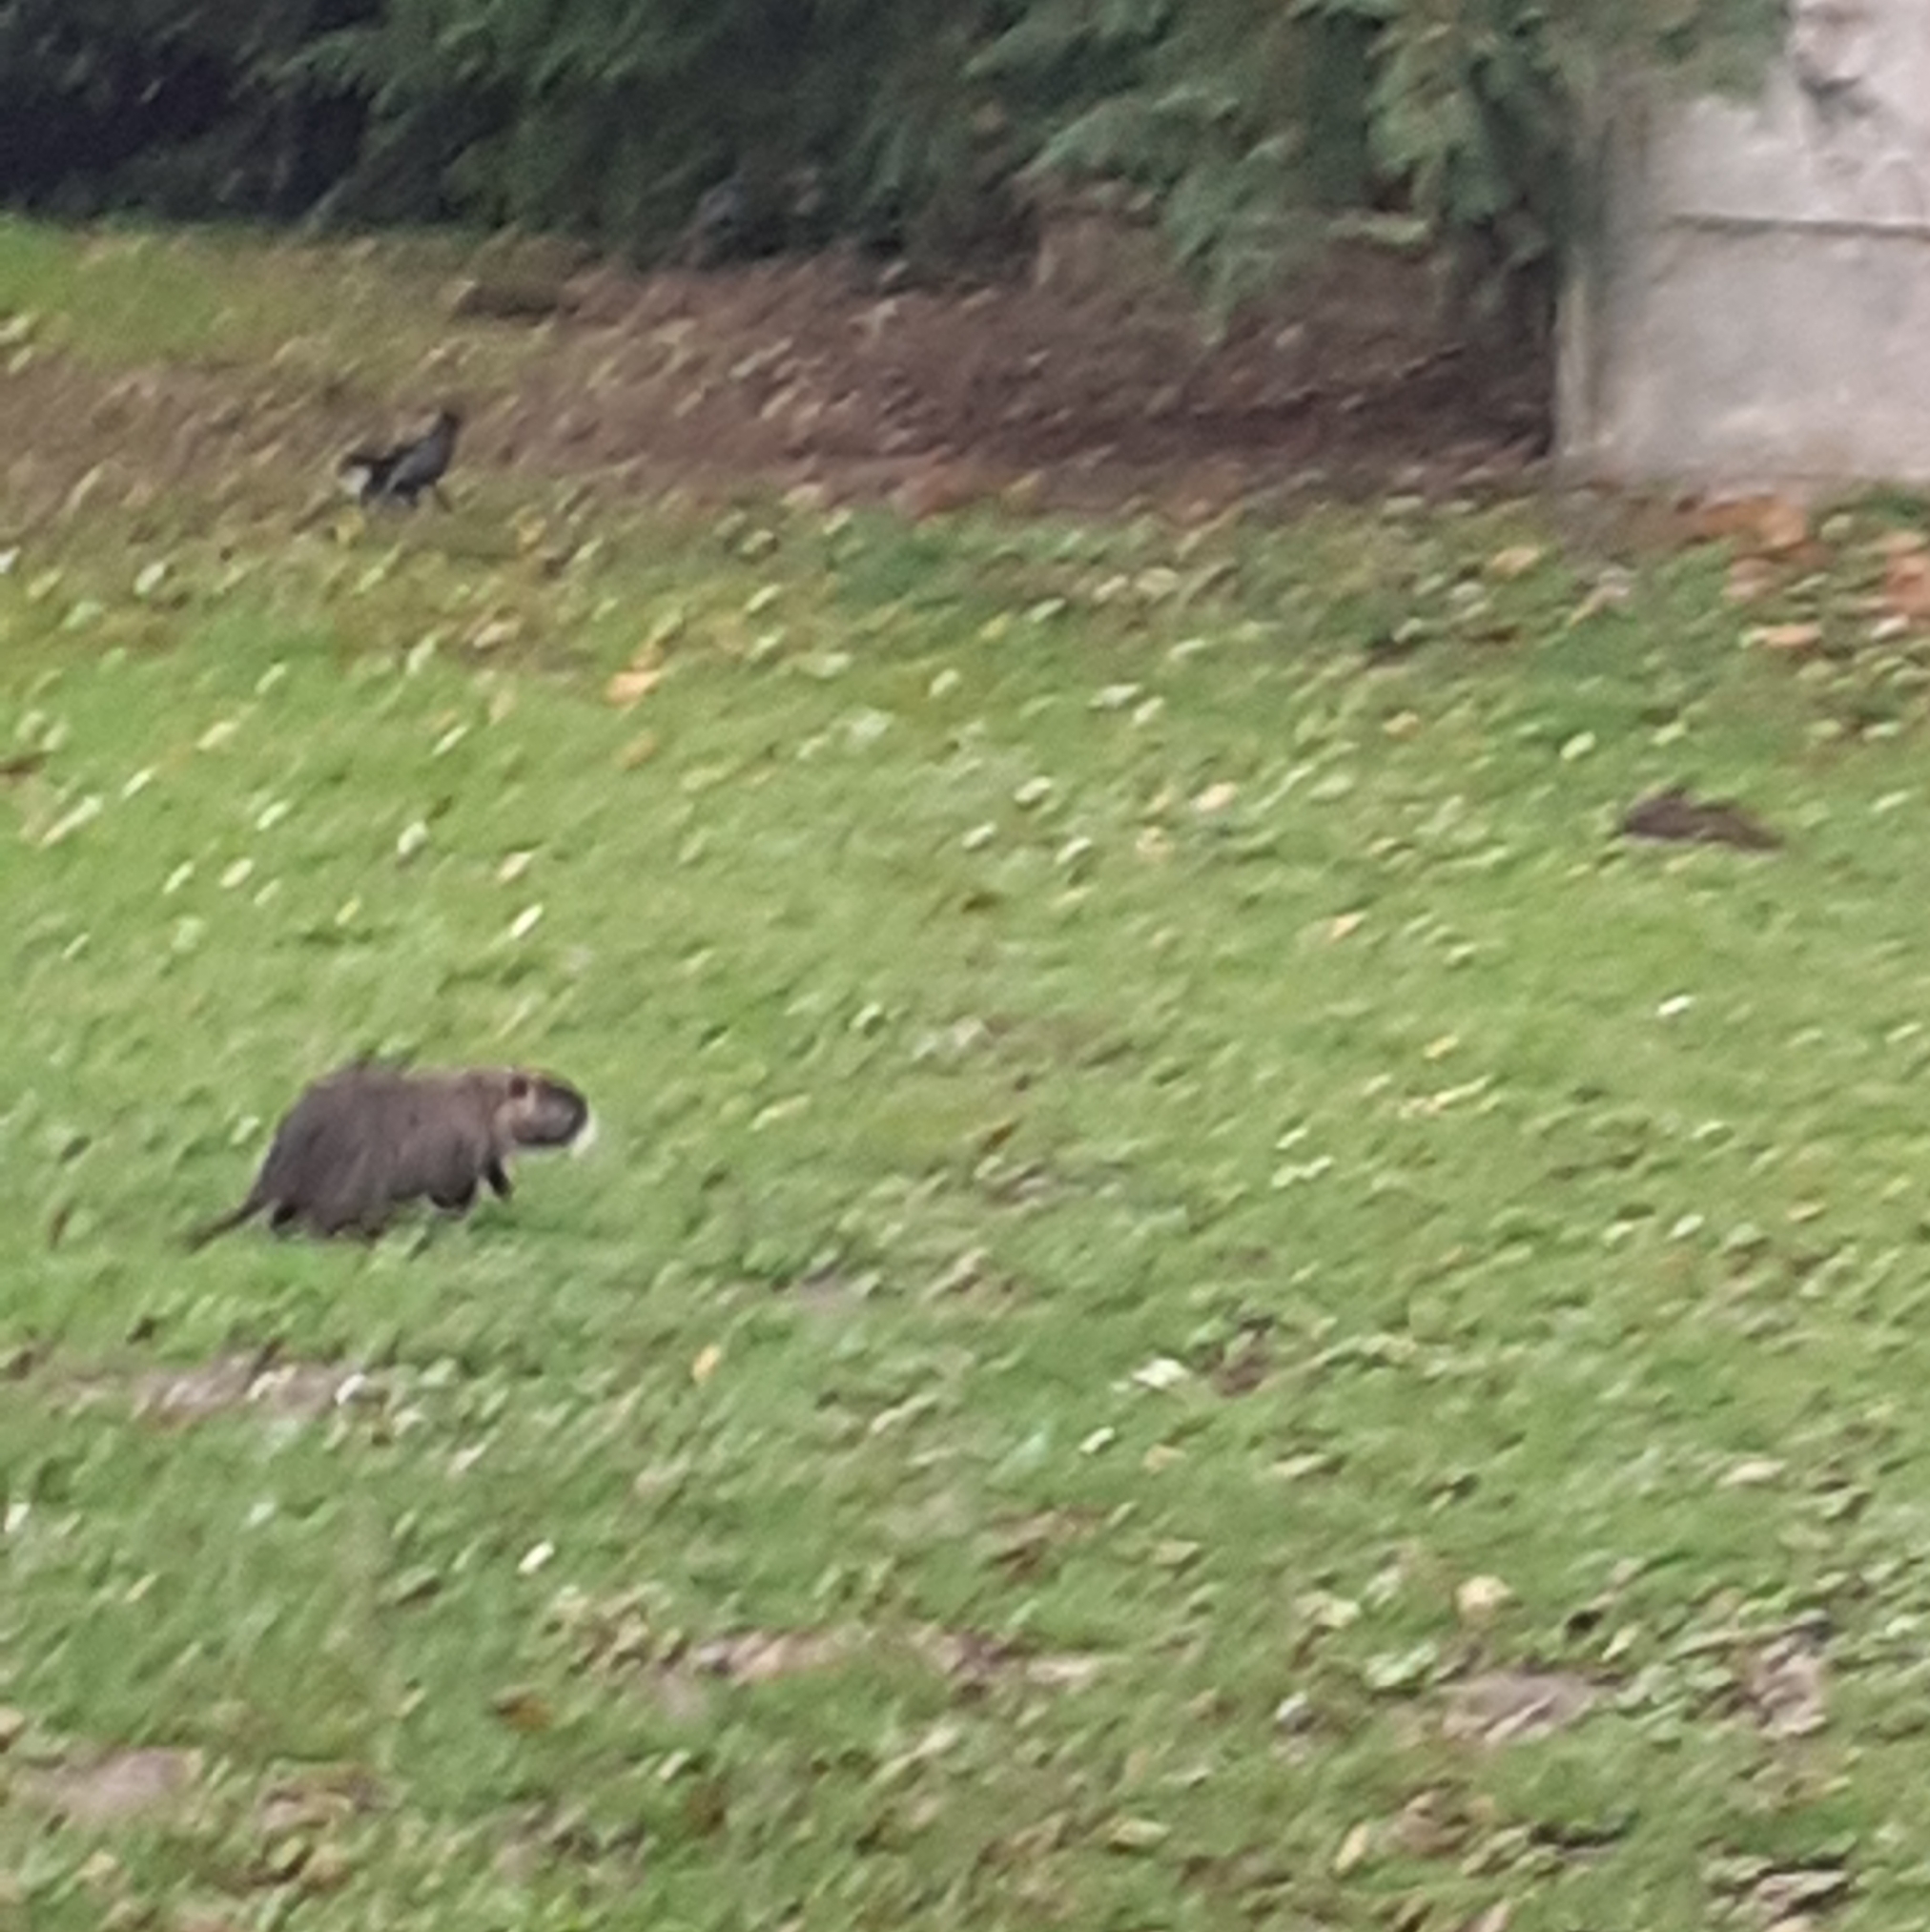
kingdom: Animalia
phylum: Chordata
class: Mammalia
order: Rodentia
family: Myocastoridae
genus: Myocastor
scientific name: Myocastor coypus
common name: Coypu
